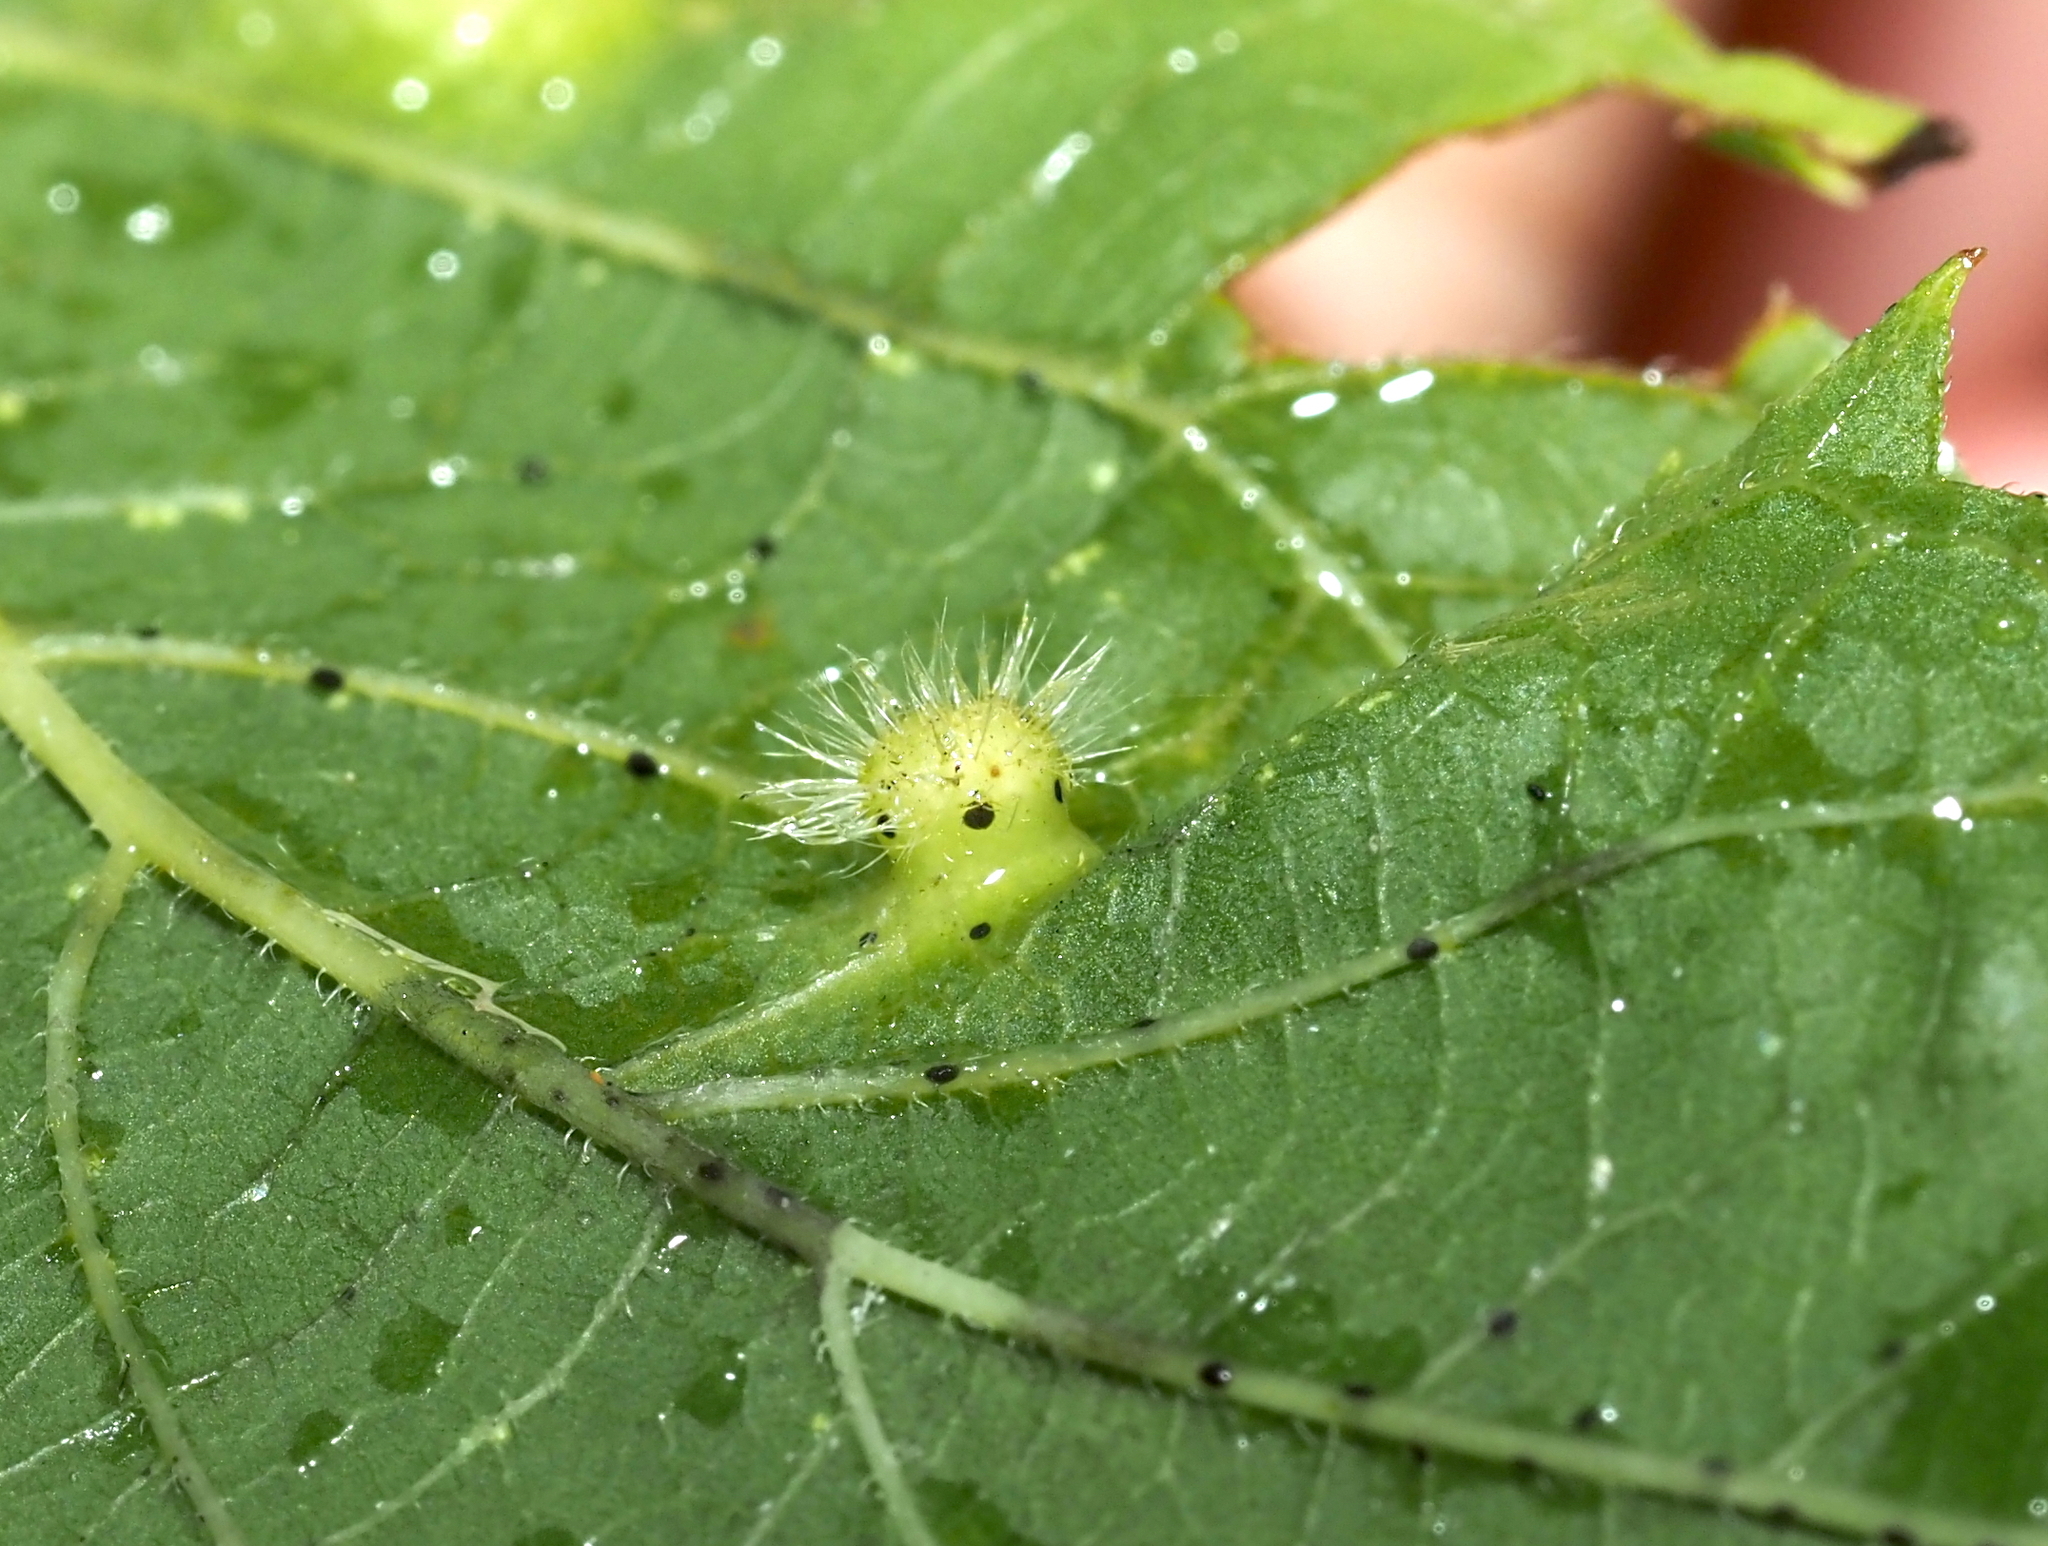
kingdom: Animalia
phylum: Arthropoda
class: Insecta
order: Hemiptera
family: Aphalaridae
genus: Pachypsylla
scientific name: Pachypsylla celtidismamma
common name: Hackberry nipplegall psyllid
